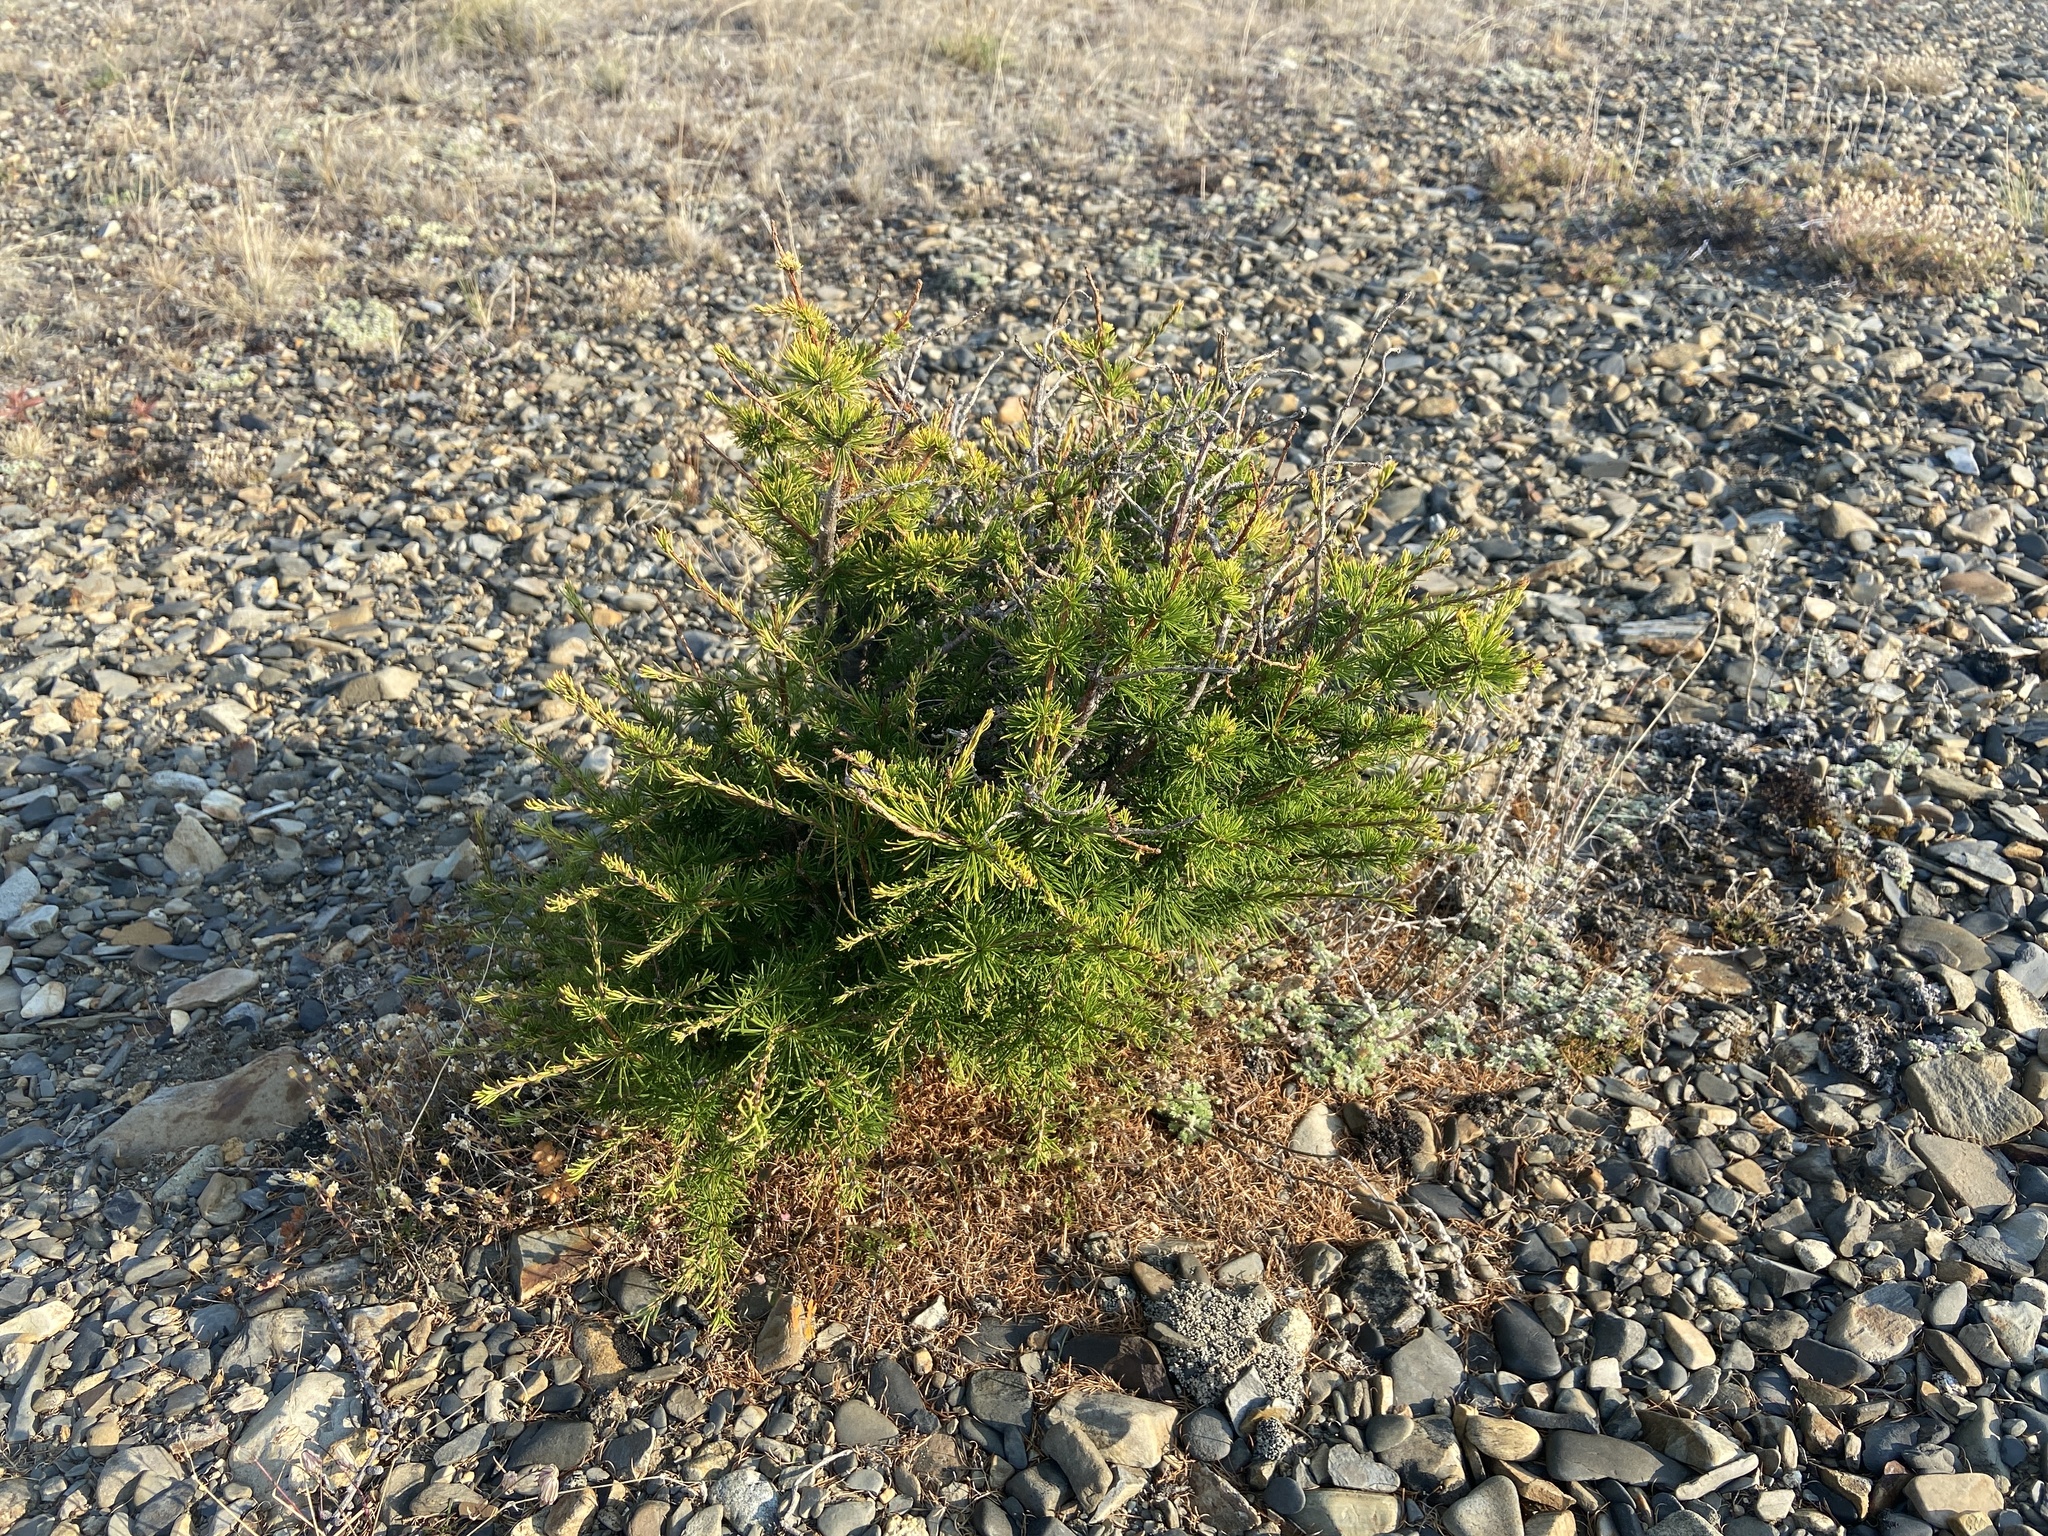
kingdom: Plantae
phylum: Tracheophyta
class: Pinopsida
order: Pinales
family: Pinaceae
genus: Larix
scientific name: Larix gmelinii
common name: Dahurian larch
